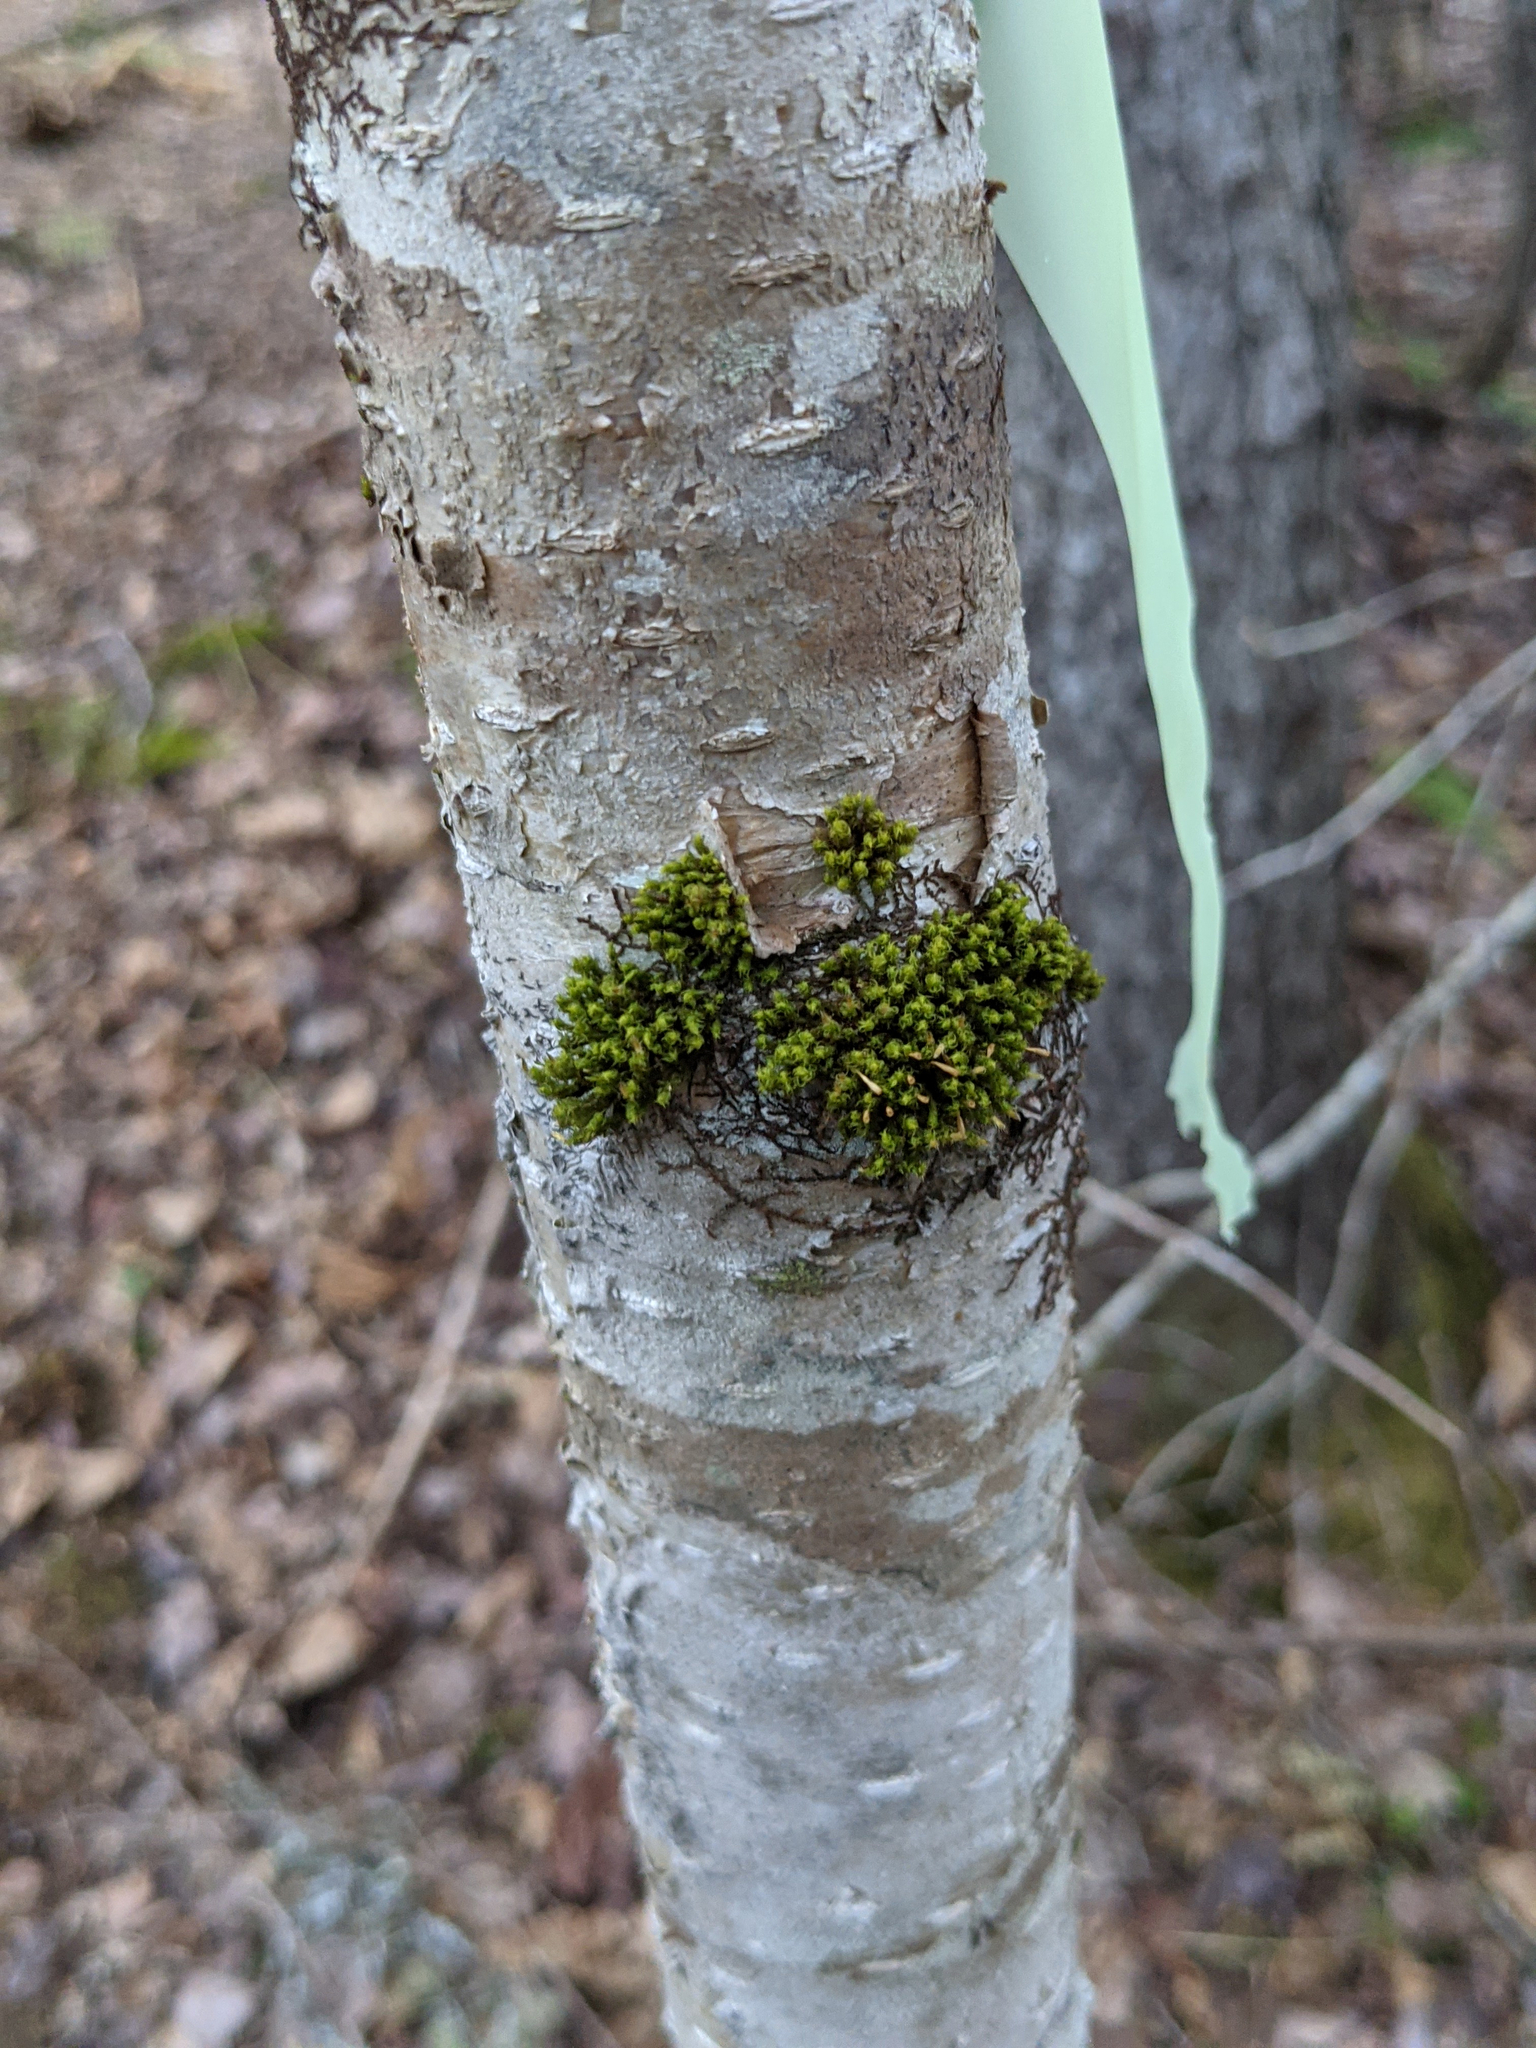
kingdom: Plantae
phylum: Bryophyta
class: Bryopsida
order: Orthotrichales
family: Orthotrichaceae
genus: Ulota
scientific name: Ulota crispa
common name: Crisped pincushion moss
